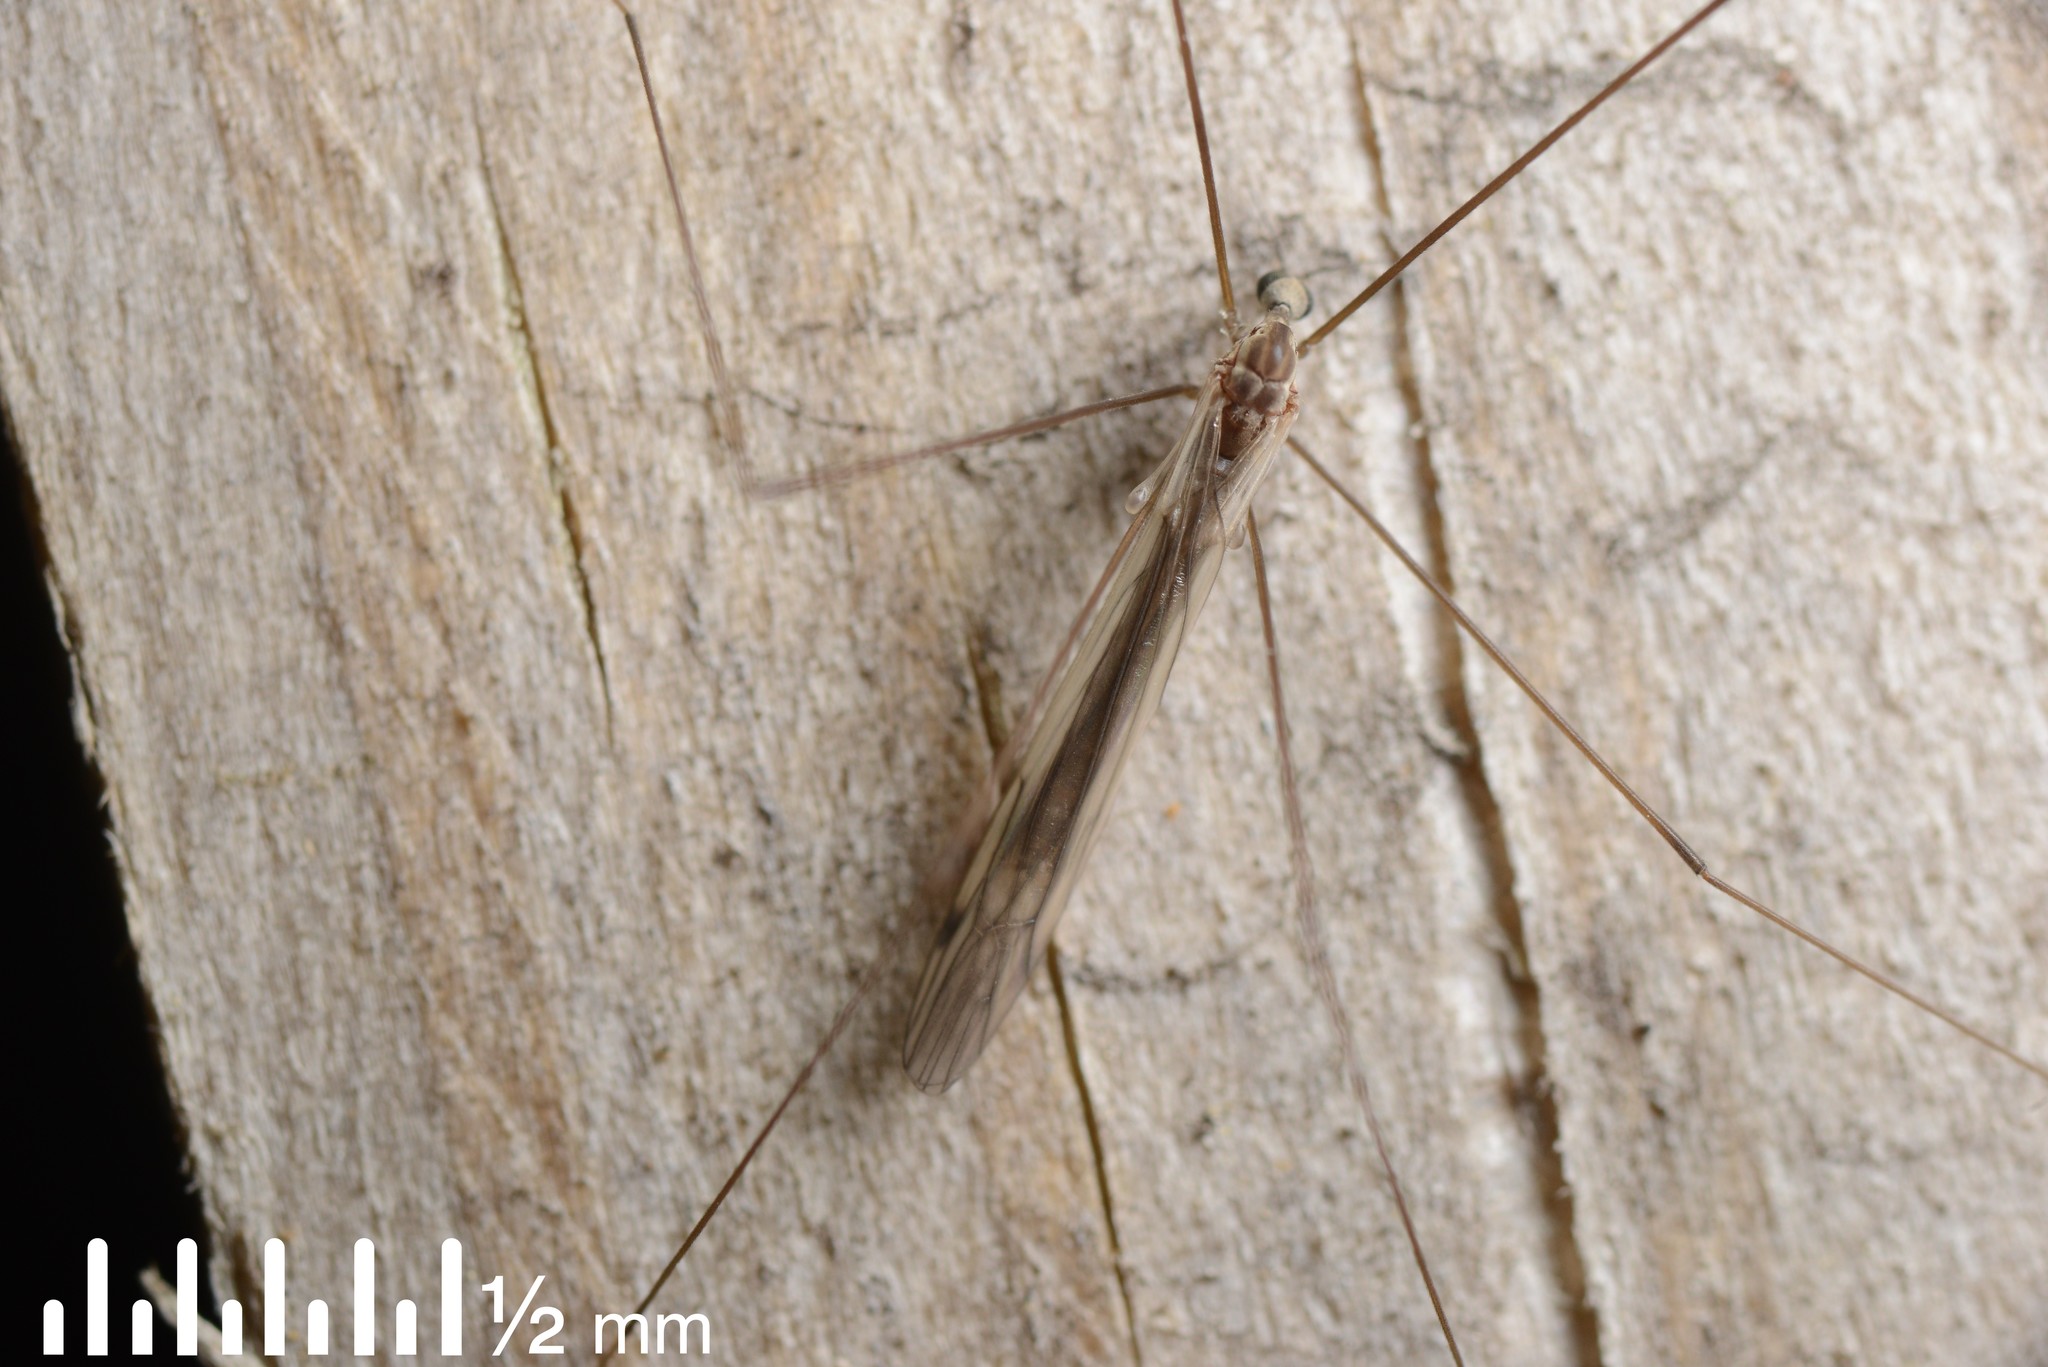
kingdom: Animalia
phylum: Arthropoda
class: Insecta
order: Diptera
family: Limoniidae
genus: Dicranomyia
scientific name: Dicranomyia aegrotans
